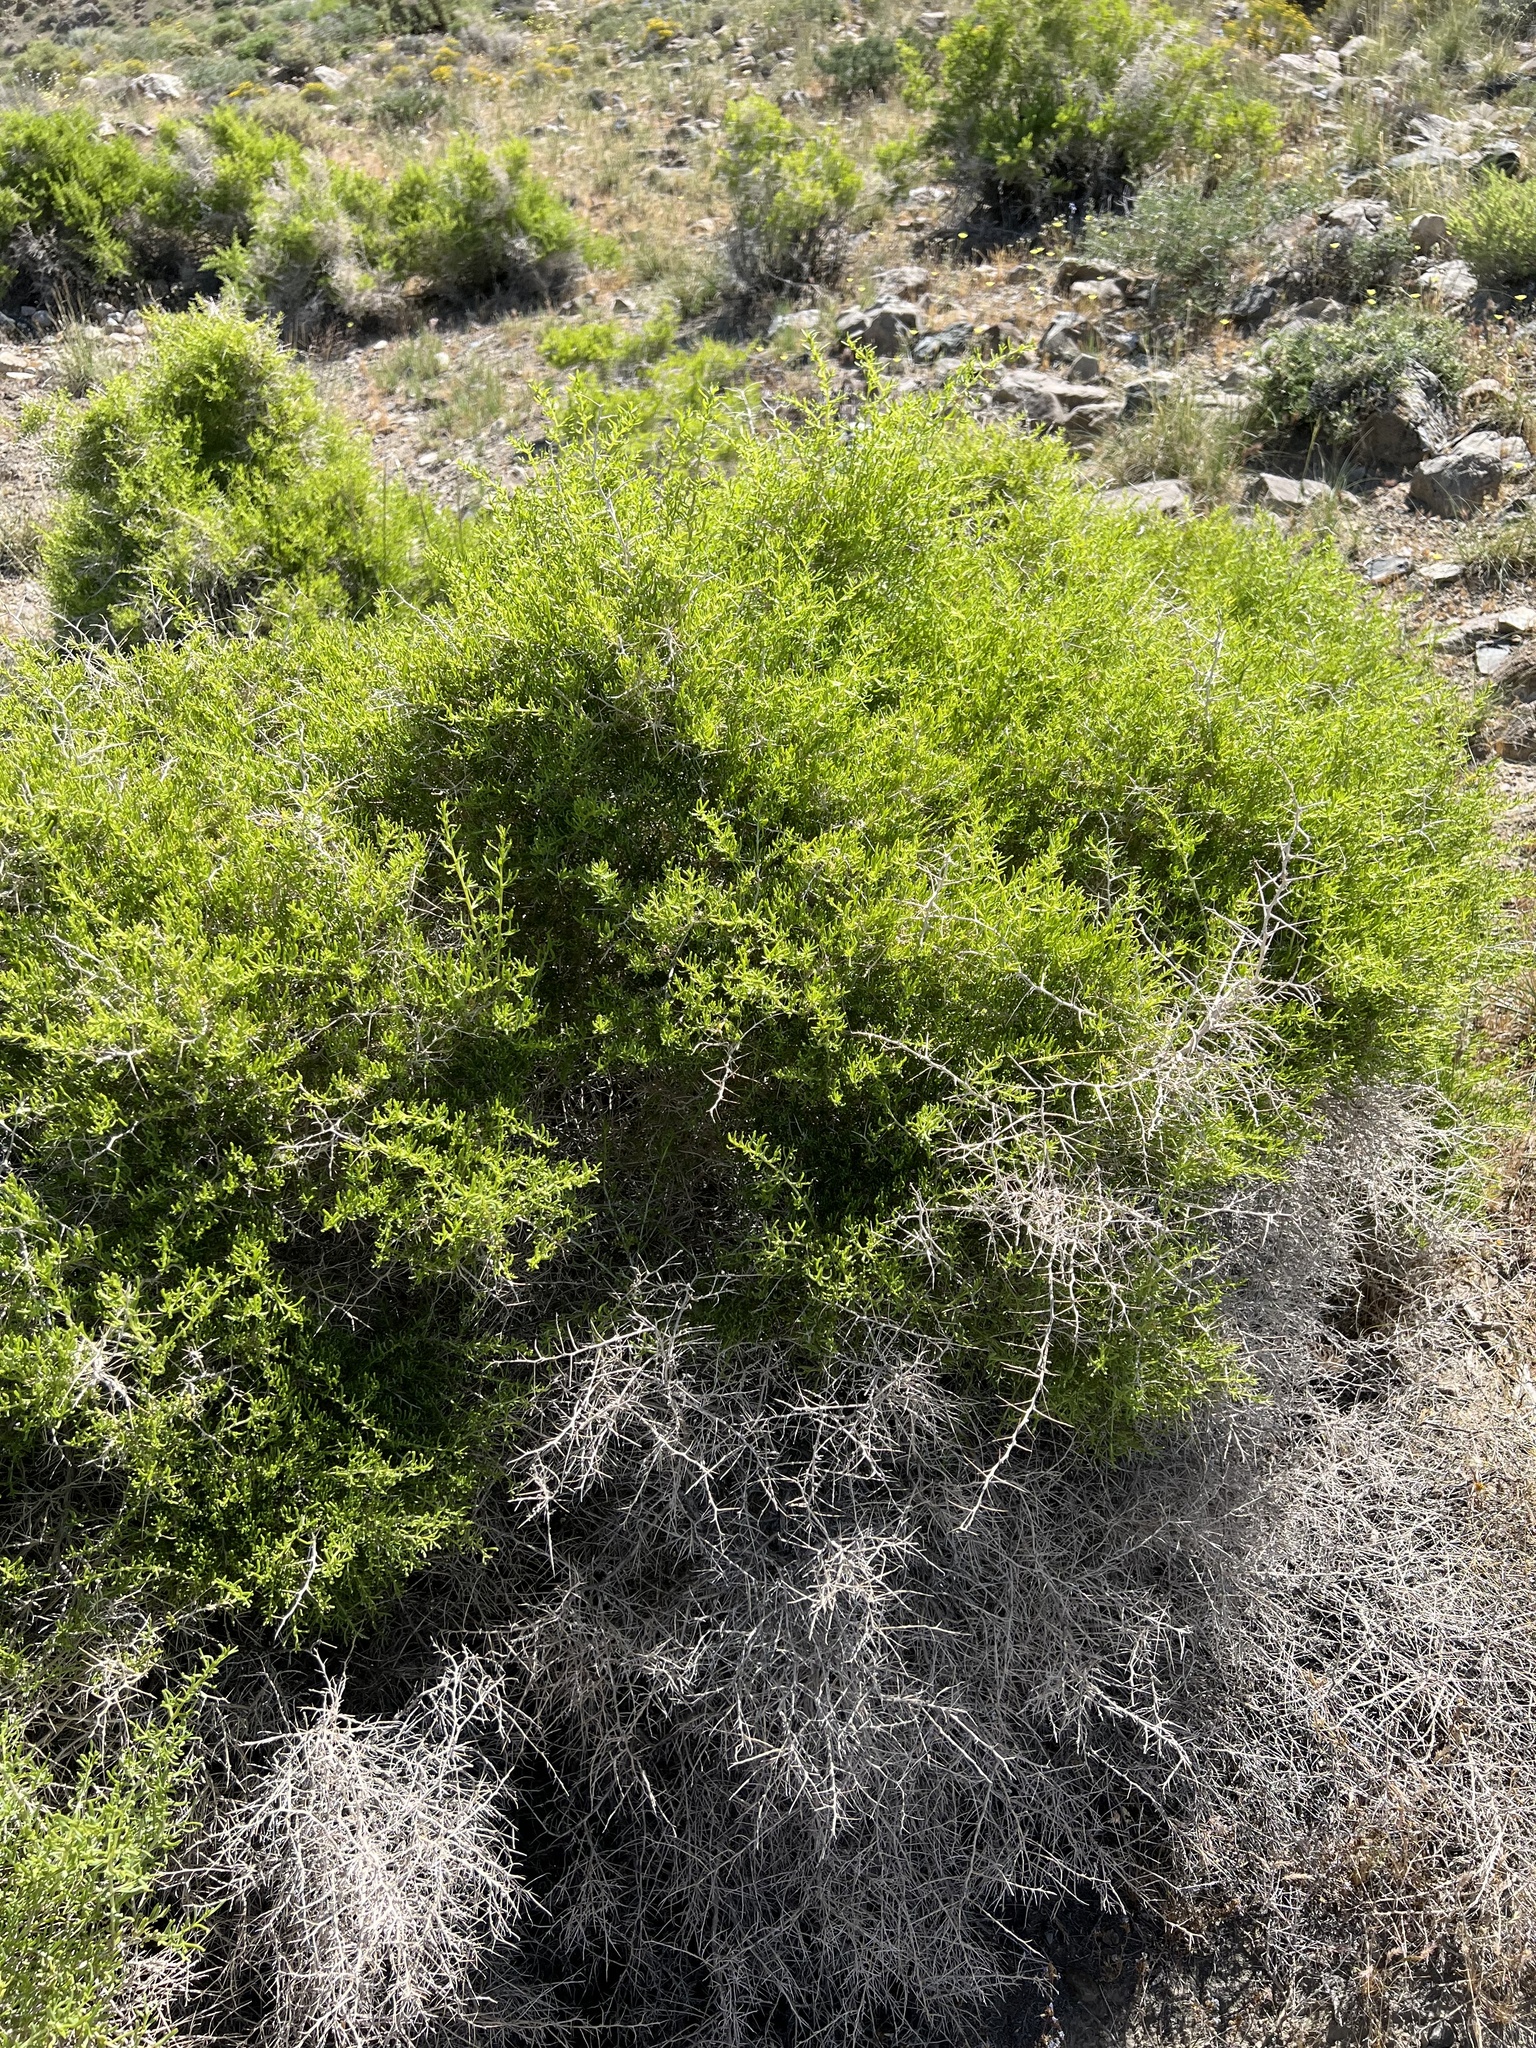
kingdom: Plantae
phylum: Tracheophyta
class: Magnoliopsida
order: Caryophyllales
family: Sarcobataceae
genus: Sarcobatus
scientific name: Sarcobatus vermiculatus
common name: Greasewood
